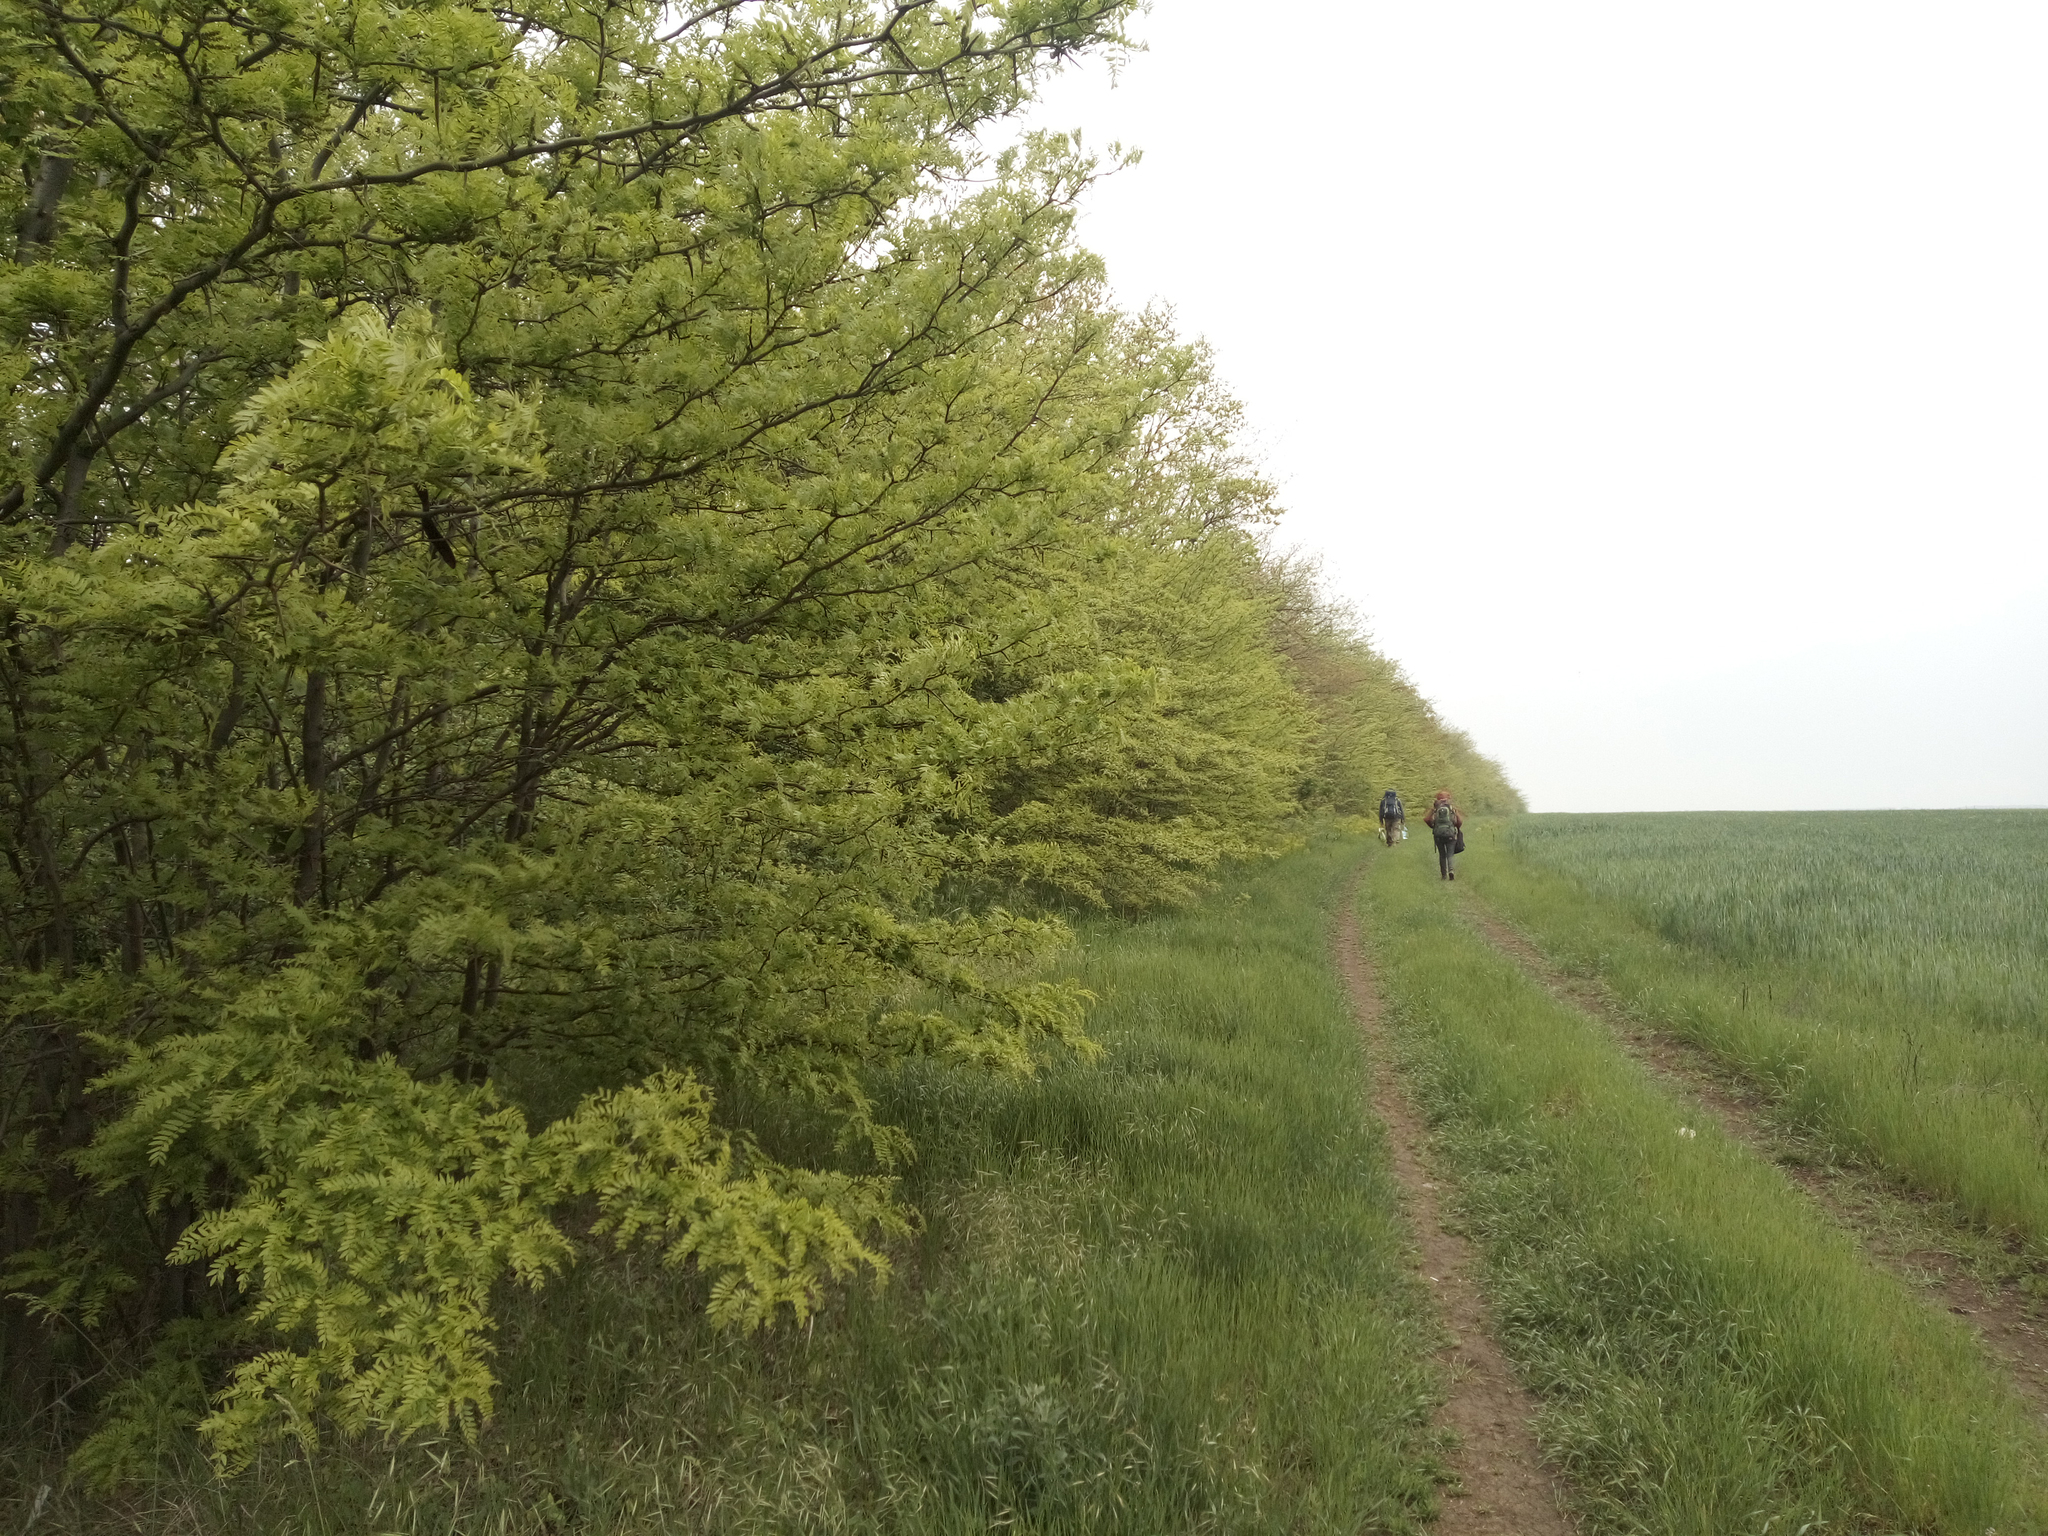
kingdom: Plantae
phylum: Tracheophyta
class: Magnoliopsida
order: Fabales
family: Fabaceae
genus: Gleditsia
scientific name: Gleditsia triacanthos
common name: Common honeylocust
